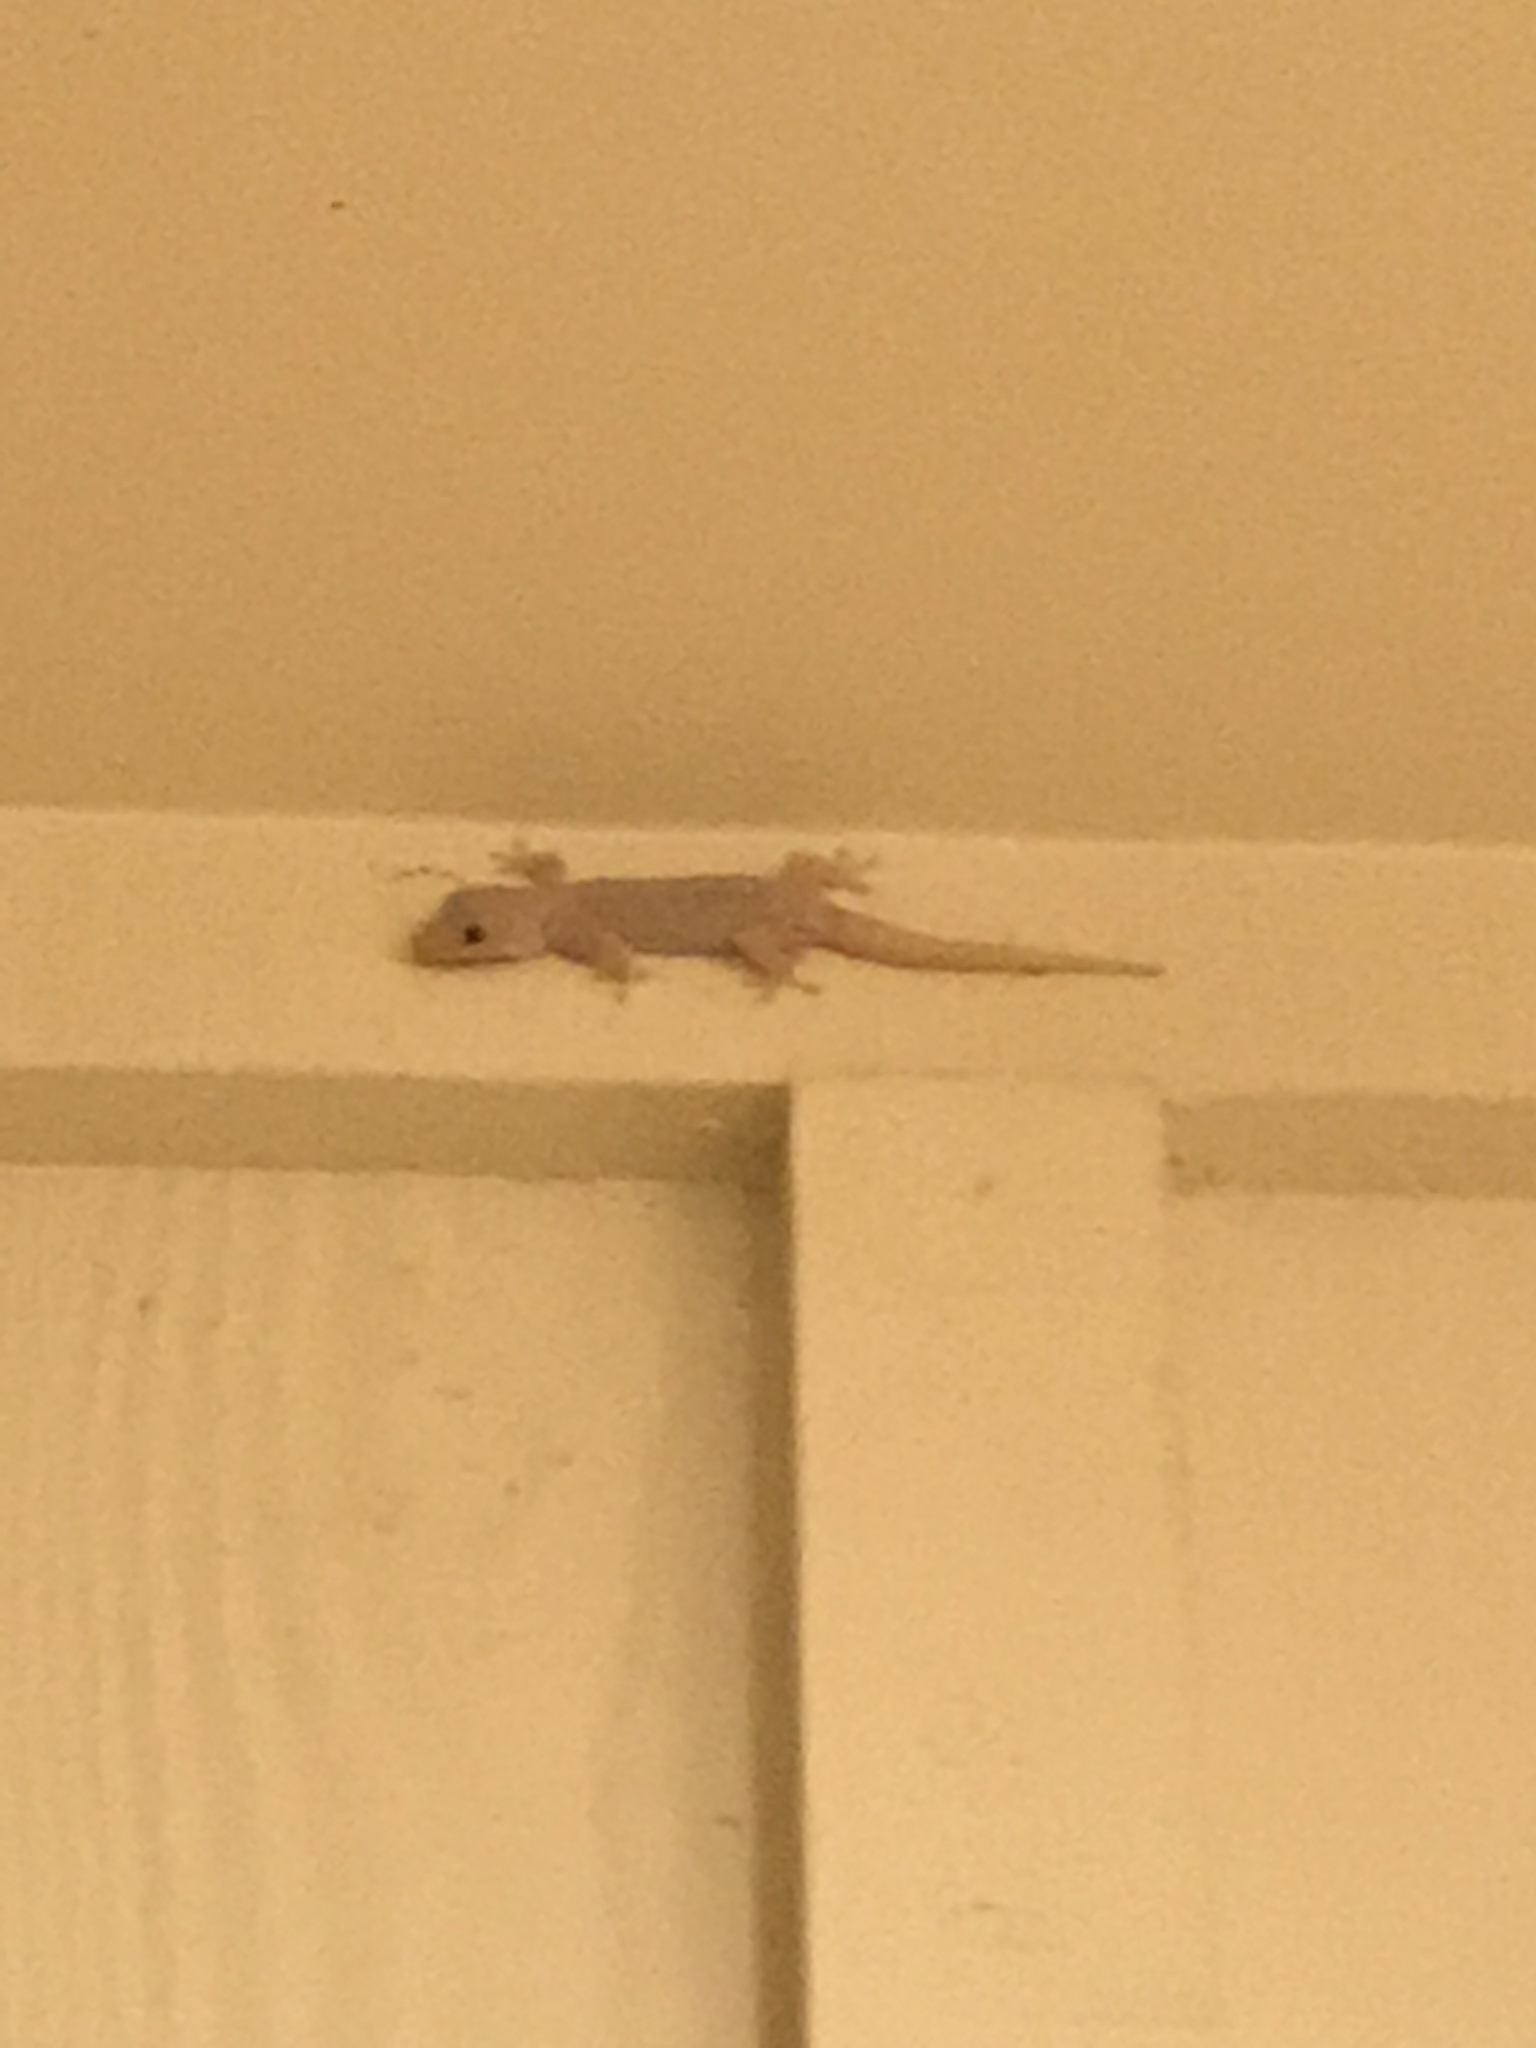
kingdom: Animalia
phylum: Chordata
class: Squamata
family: Gekkonidae
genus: Hemidactylus
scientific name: Hemidactylus frenatus
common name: Common house gecko
